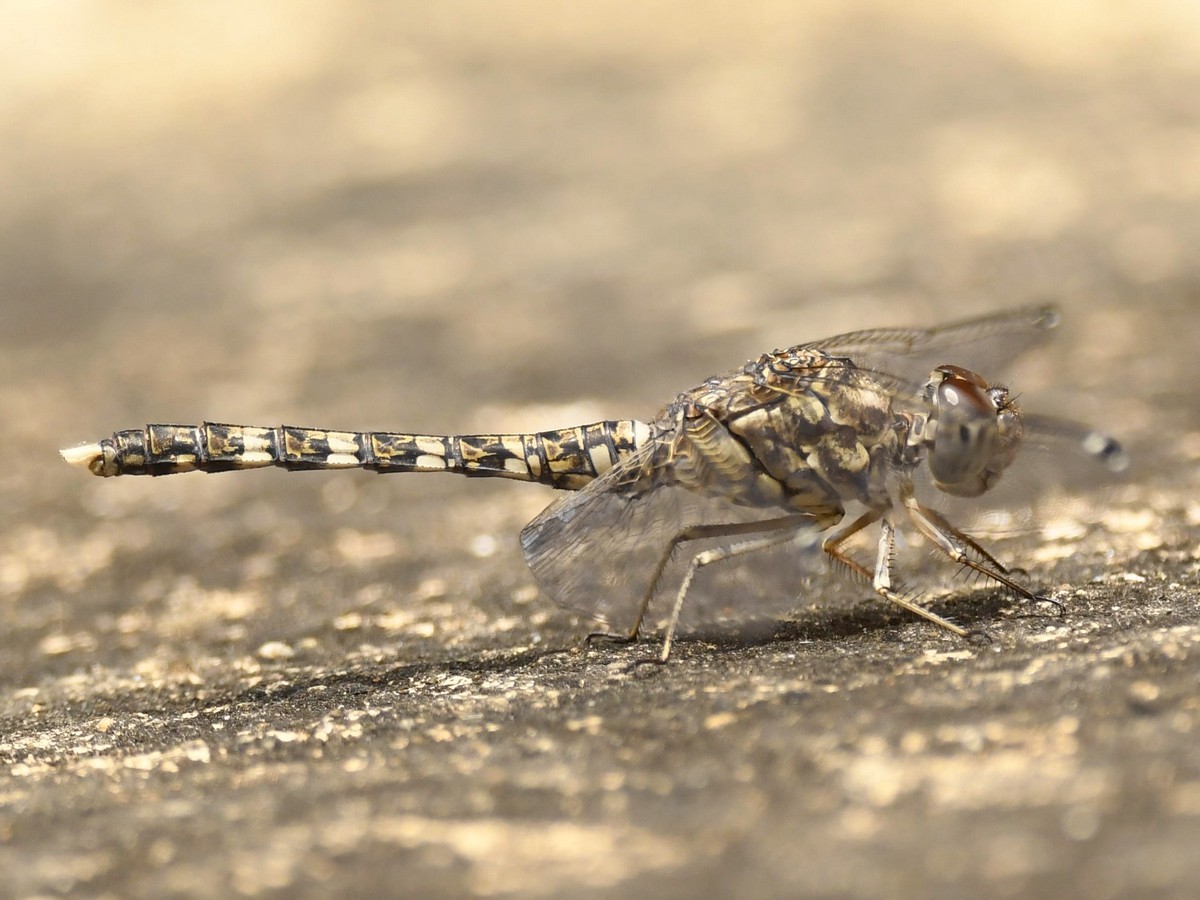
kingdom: Animalia
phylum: Arthropoda
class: Insecta
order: Odonata
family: Libellulidae
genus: Bradinopyga
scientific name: Bradinopyga geminata
